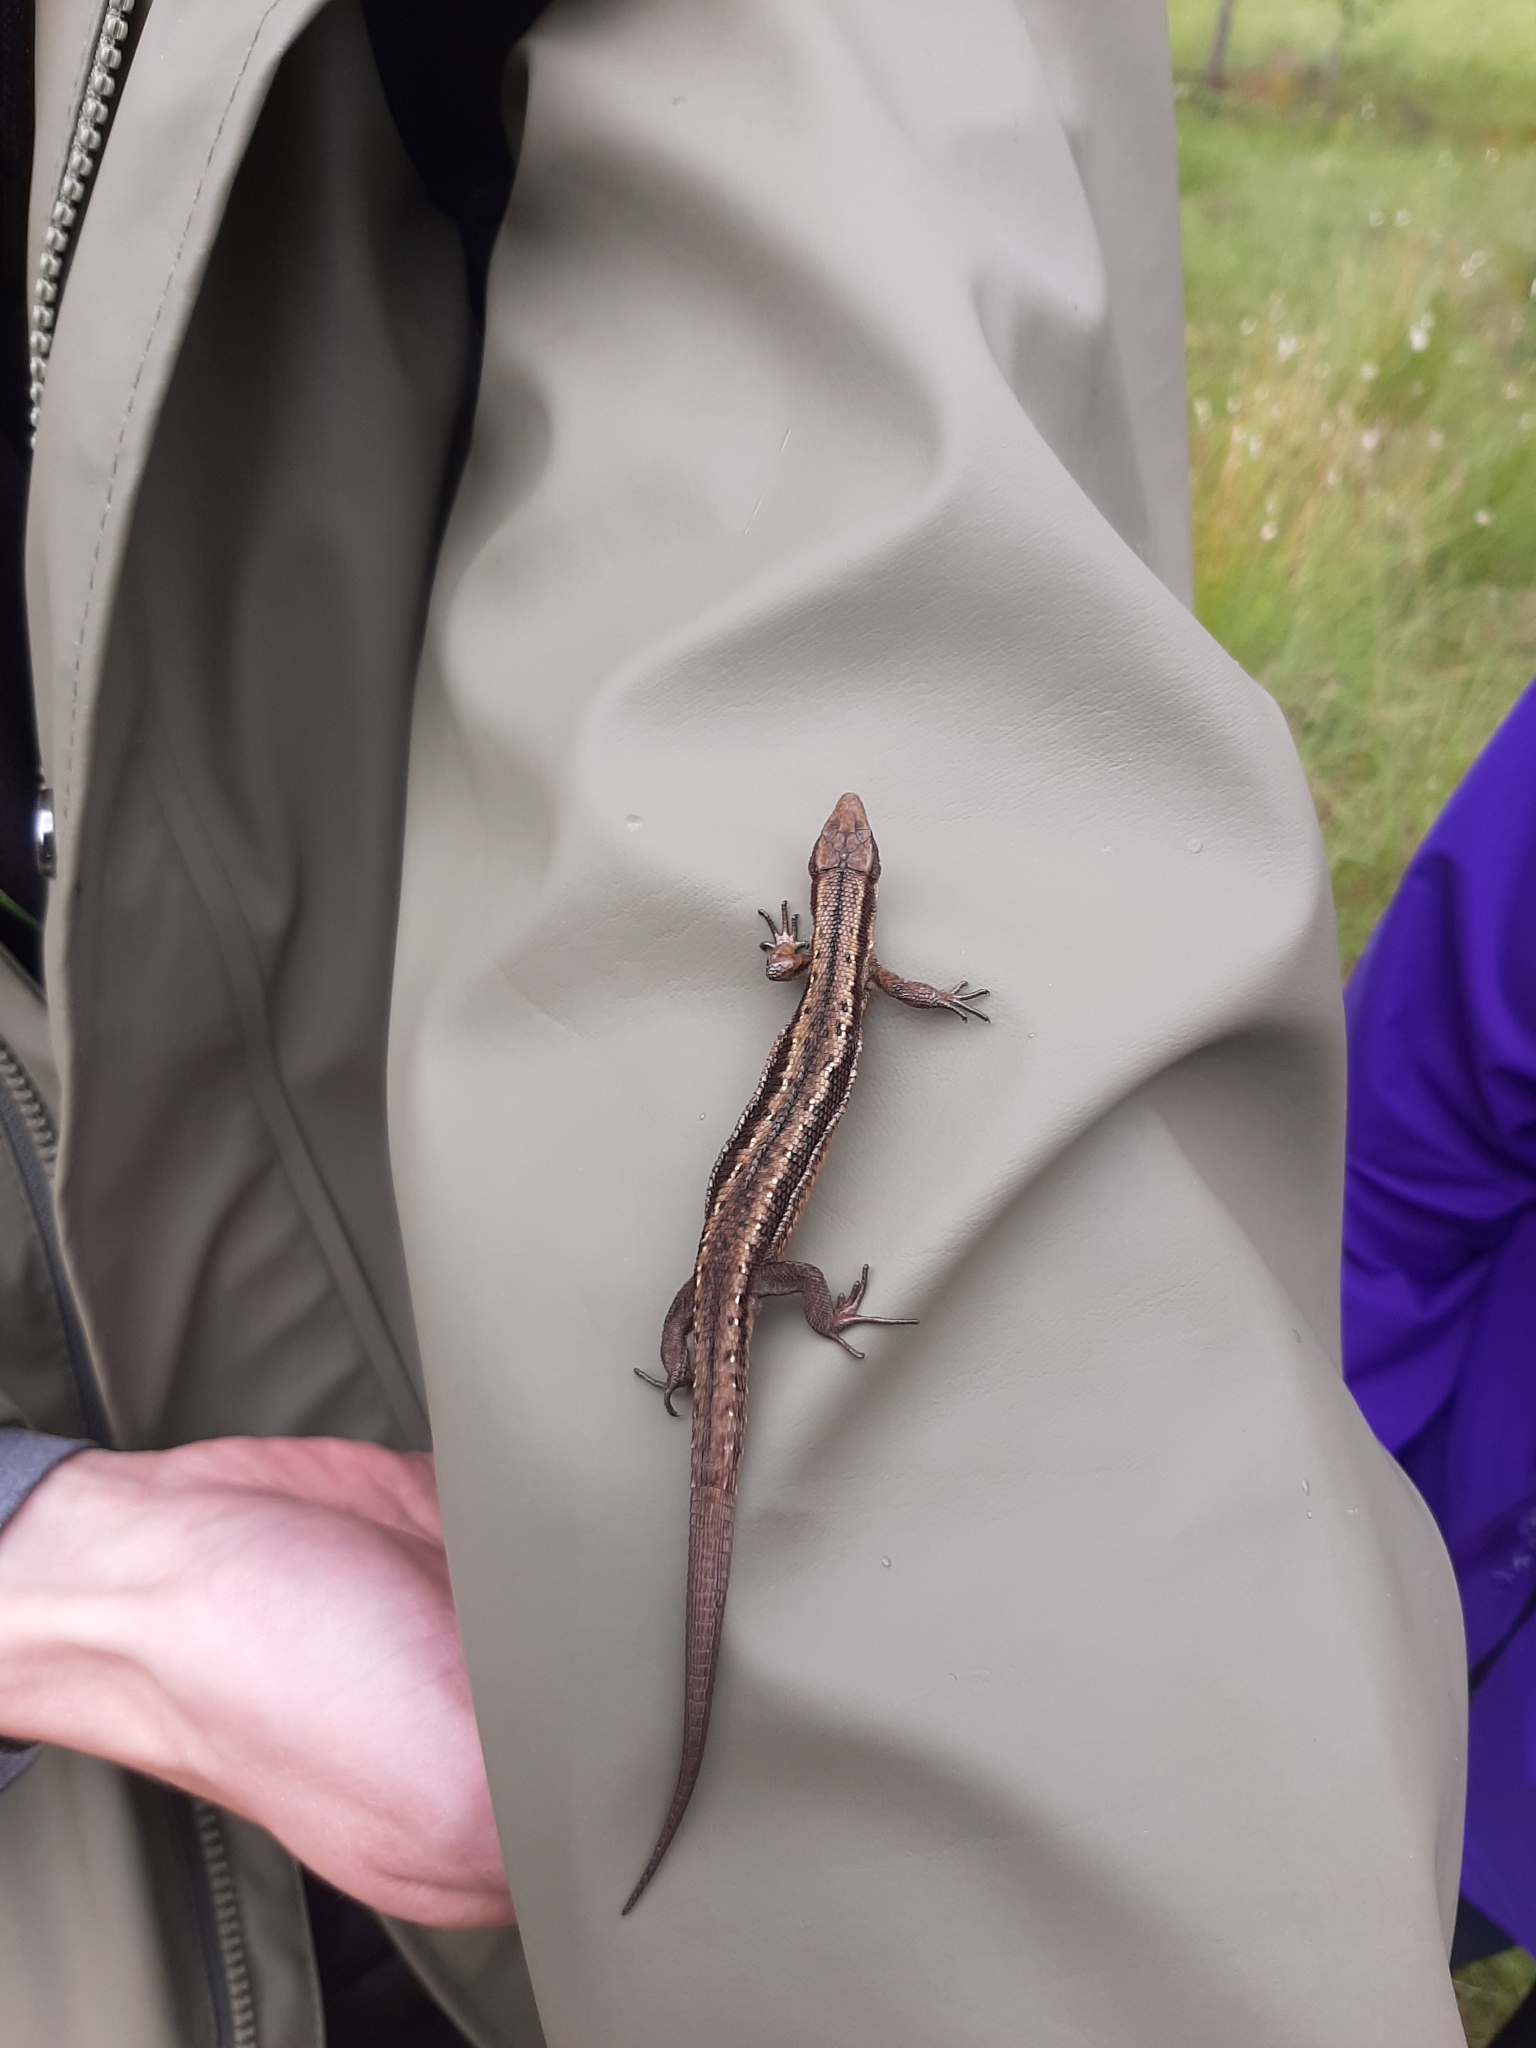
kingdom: Animalia
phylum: Chordata
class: Squamata
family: Lacertidae
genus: Zootoca
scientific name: Zootoca vivipara
